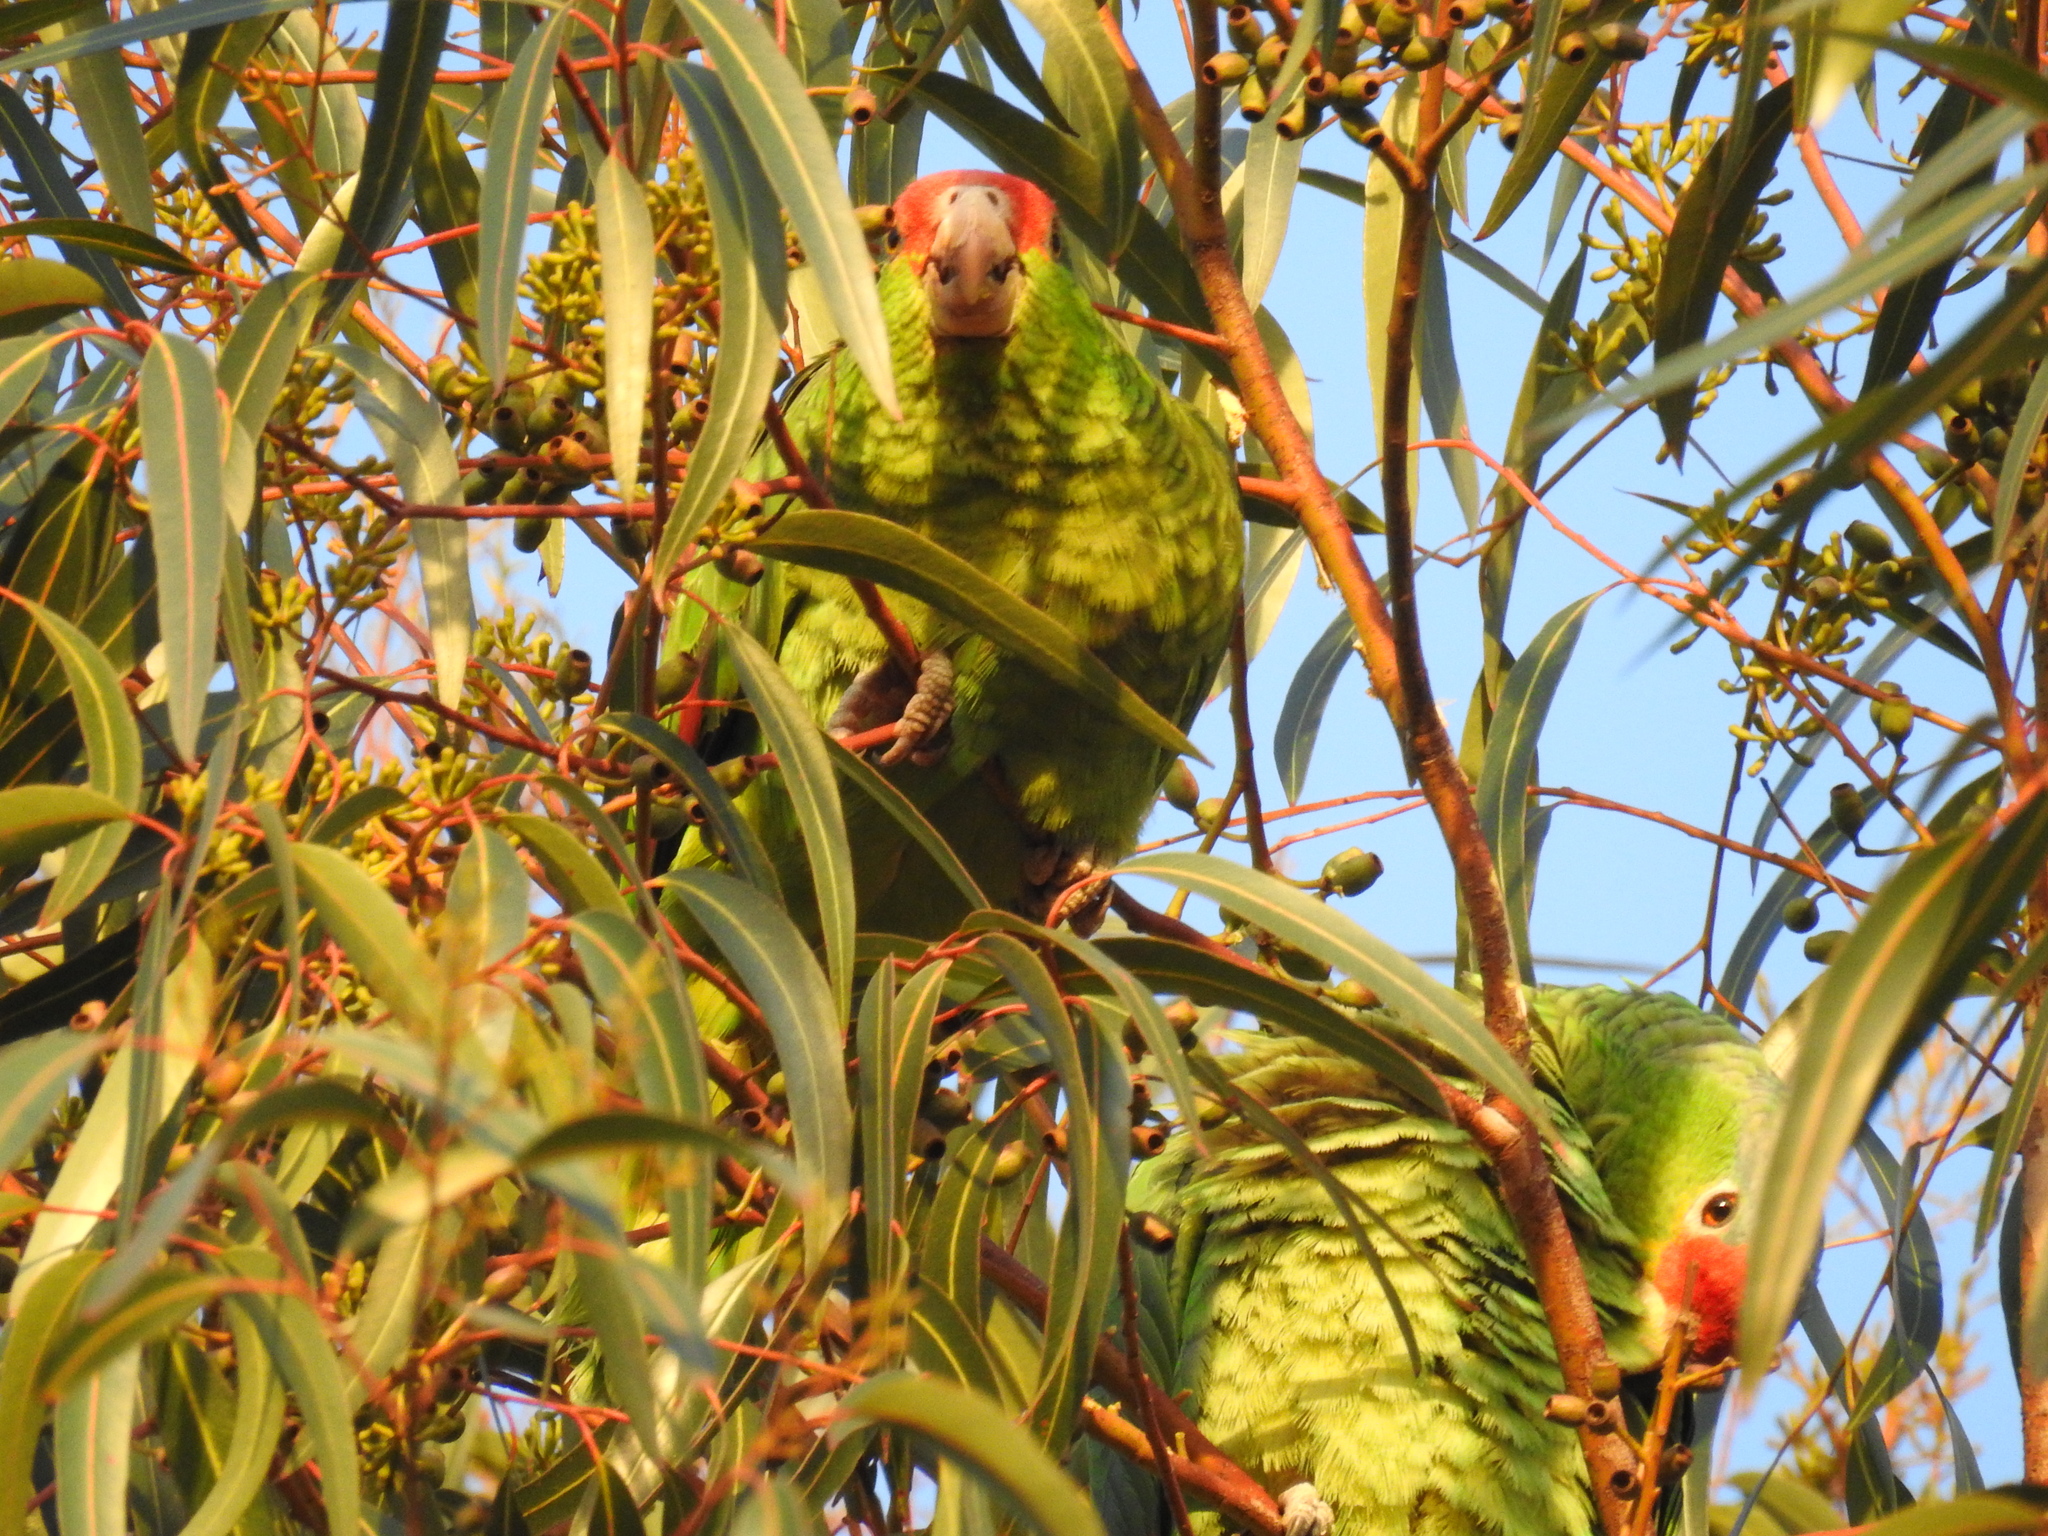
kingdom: Animalia
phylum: Chordata
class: Aves
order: Psittaciformes
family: Psittacidae
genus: Amazona
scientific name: Amazona viridigenalis
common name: Red-crowned amazon
